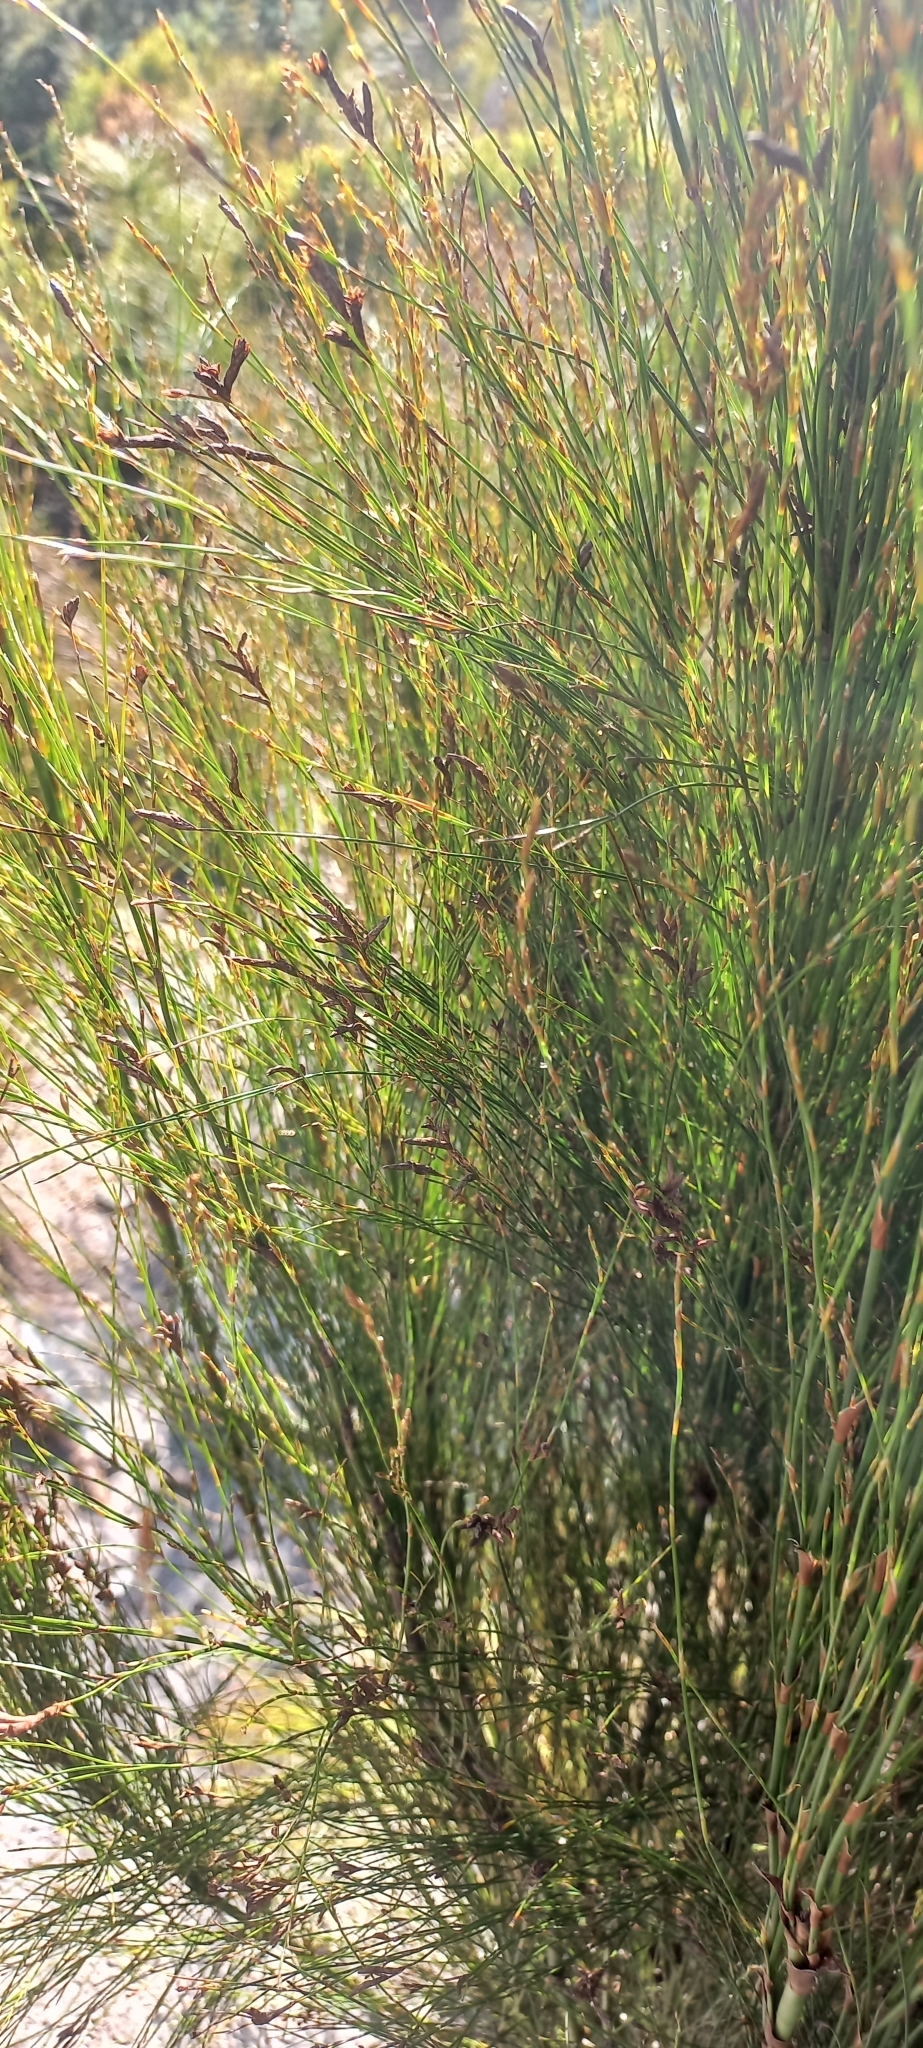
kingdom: Plantae
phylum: Tracheophyta
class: Liliopsida
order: Poales
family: Restionaceae
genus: Restio
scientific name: Restio subverticillatus
